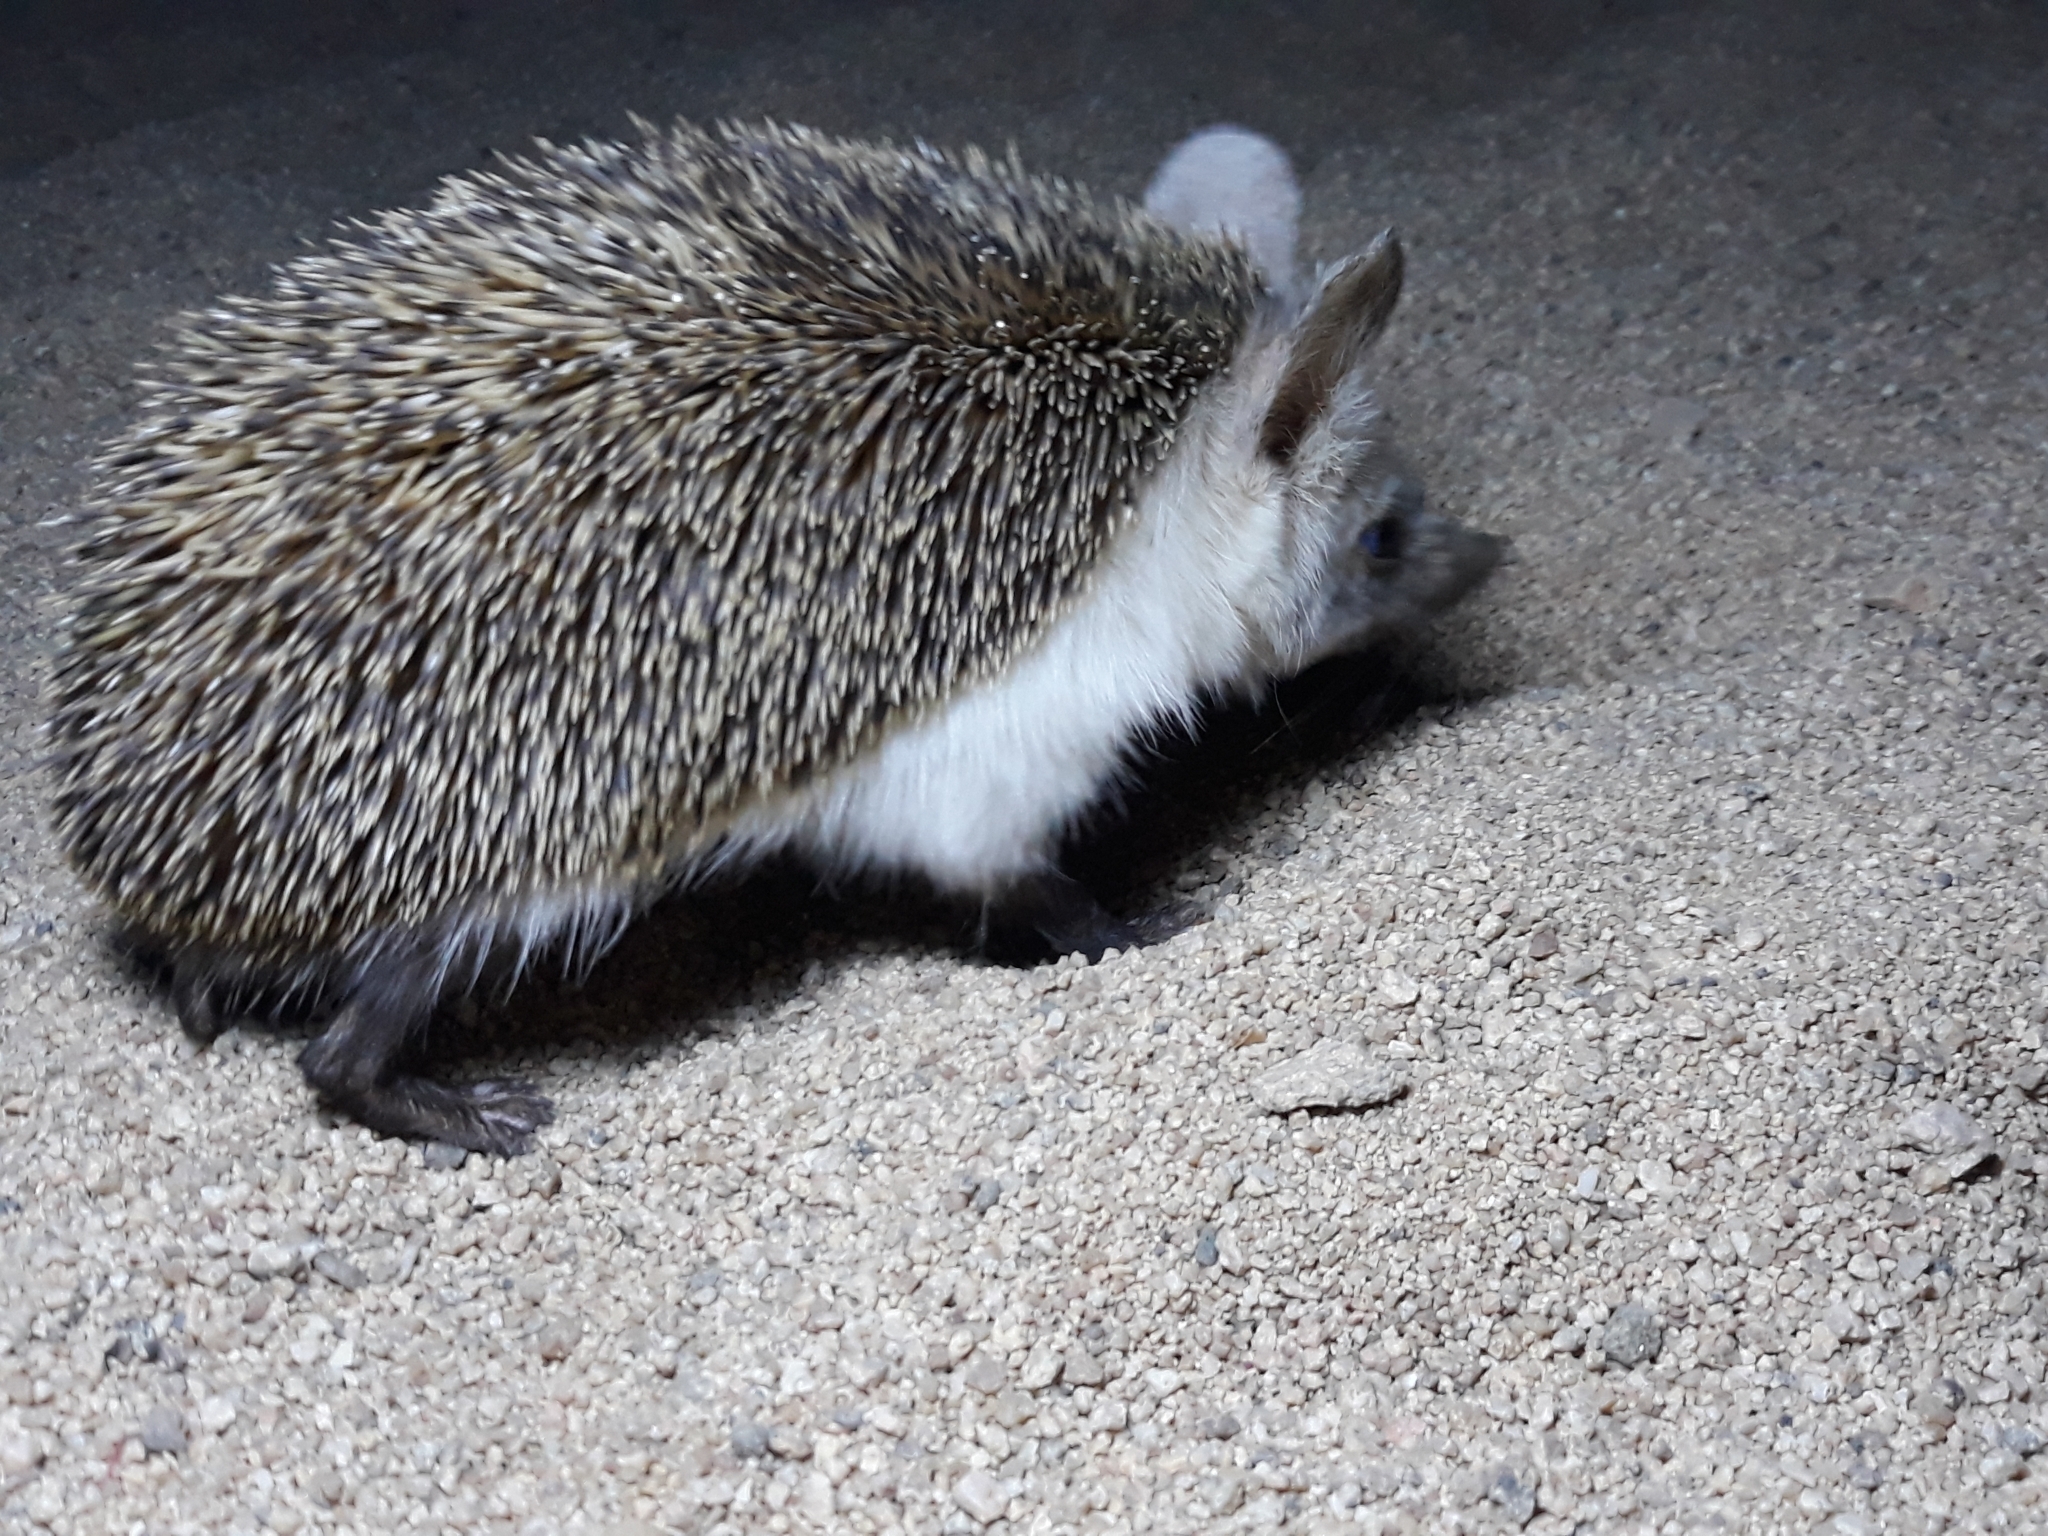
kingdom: Animalia
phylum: Chordata
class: Mammalia
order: Erinaceomorpha
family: Erinaceidae
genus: Paraechinus
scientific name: Paraechinus aethiopicus
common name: Desert hedgehog
